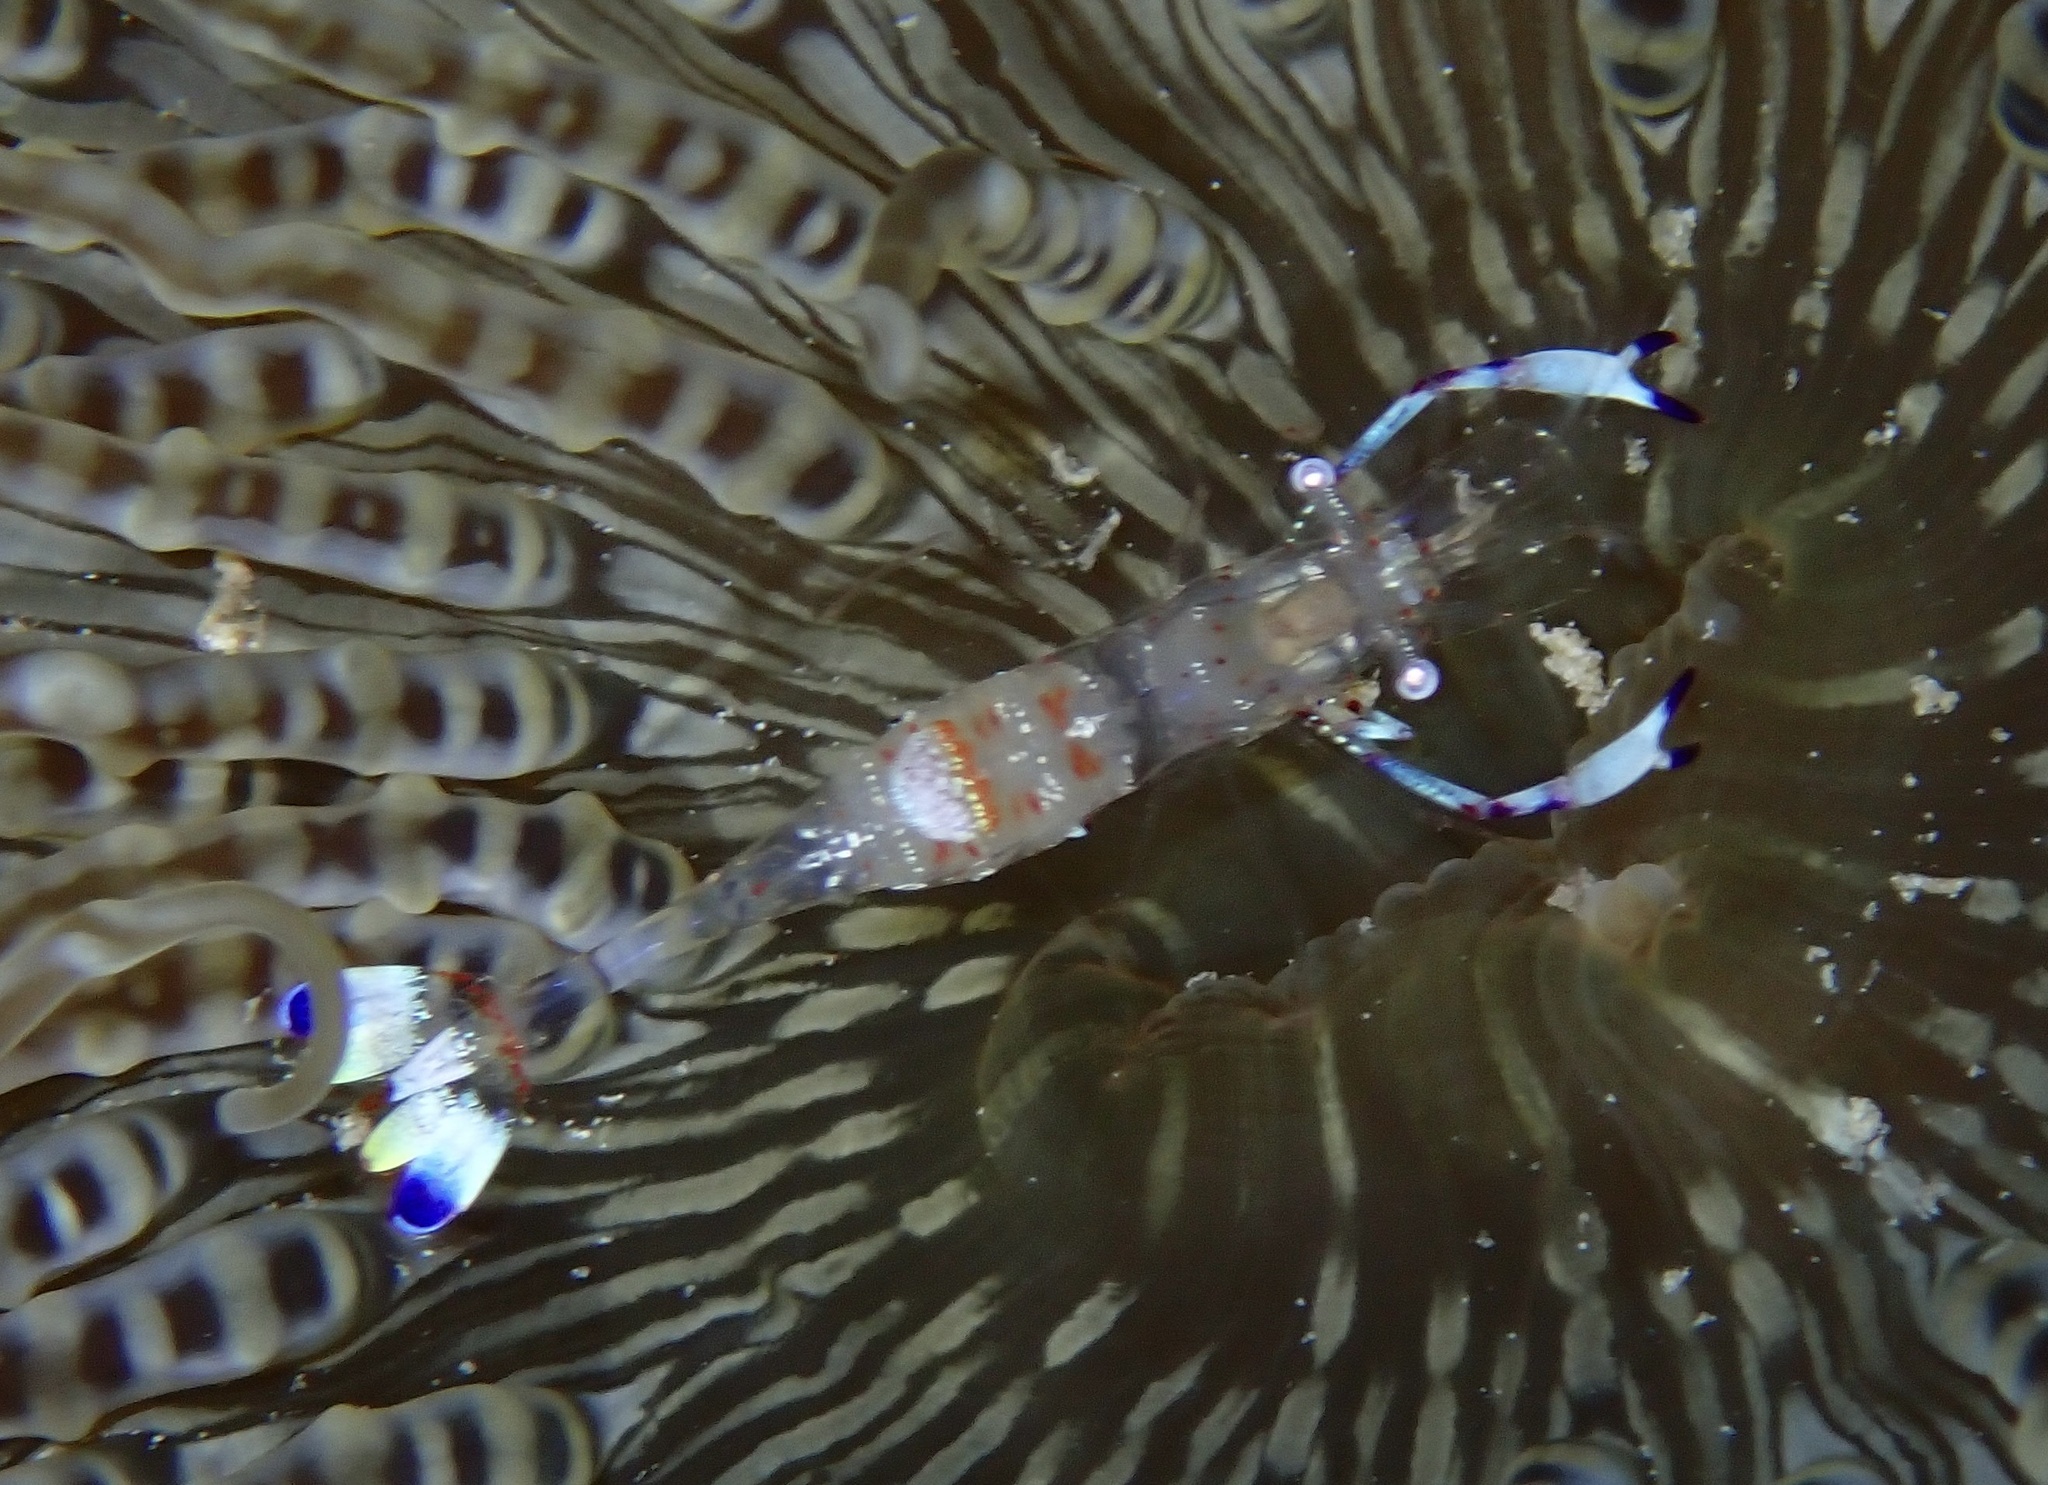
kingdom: Animalia
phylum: Arthropoda
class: Malacostraca
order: Decapoda
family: Palaemonidae
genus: Ancylomenes
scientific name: Ancylomenes magnificus
